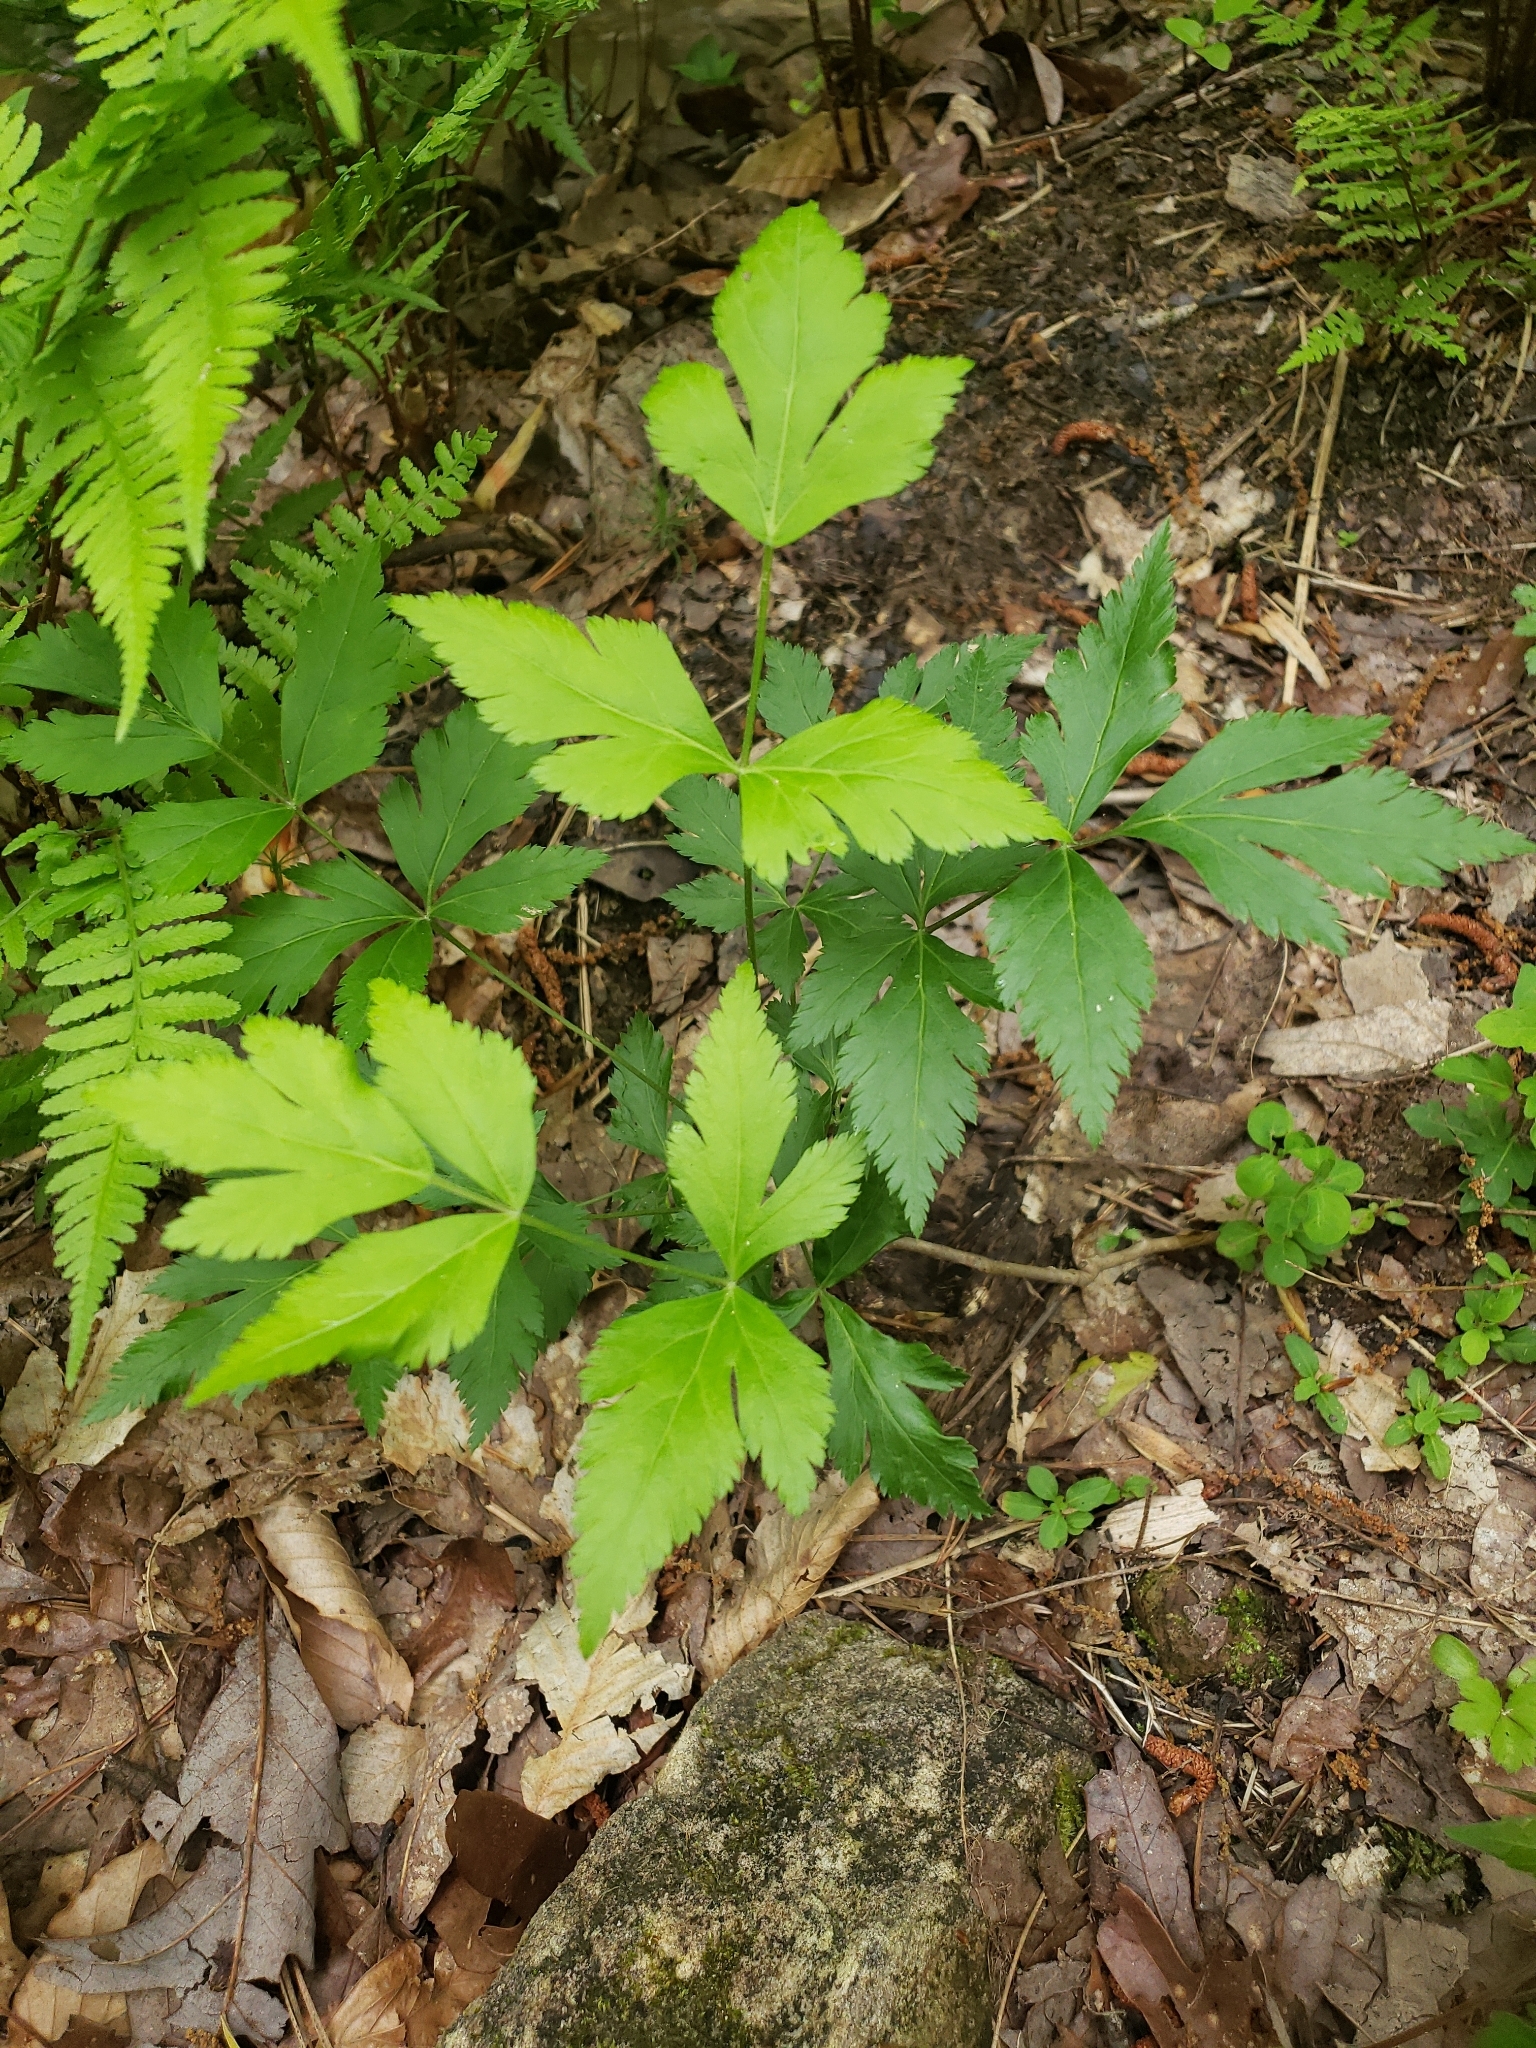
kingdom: Plantae
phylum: Tracheophyta
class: Magnoliopsida
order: Ranunculales
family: Ranunculaceae
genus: Xanthorhiza
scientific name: Xanthorhiza simplicissima
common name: Yellowroot
